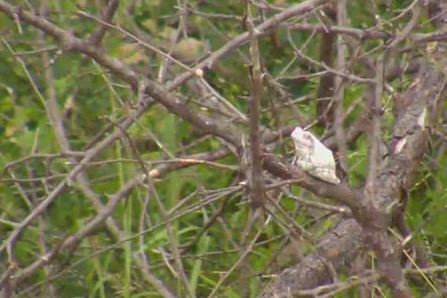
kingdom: Animalia
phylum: Chordata
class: Amphibia
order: Anura
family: Rhacophoridae
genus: Chiromantis
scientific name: Chiromantis xerampelina
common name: African gray treefrog
